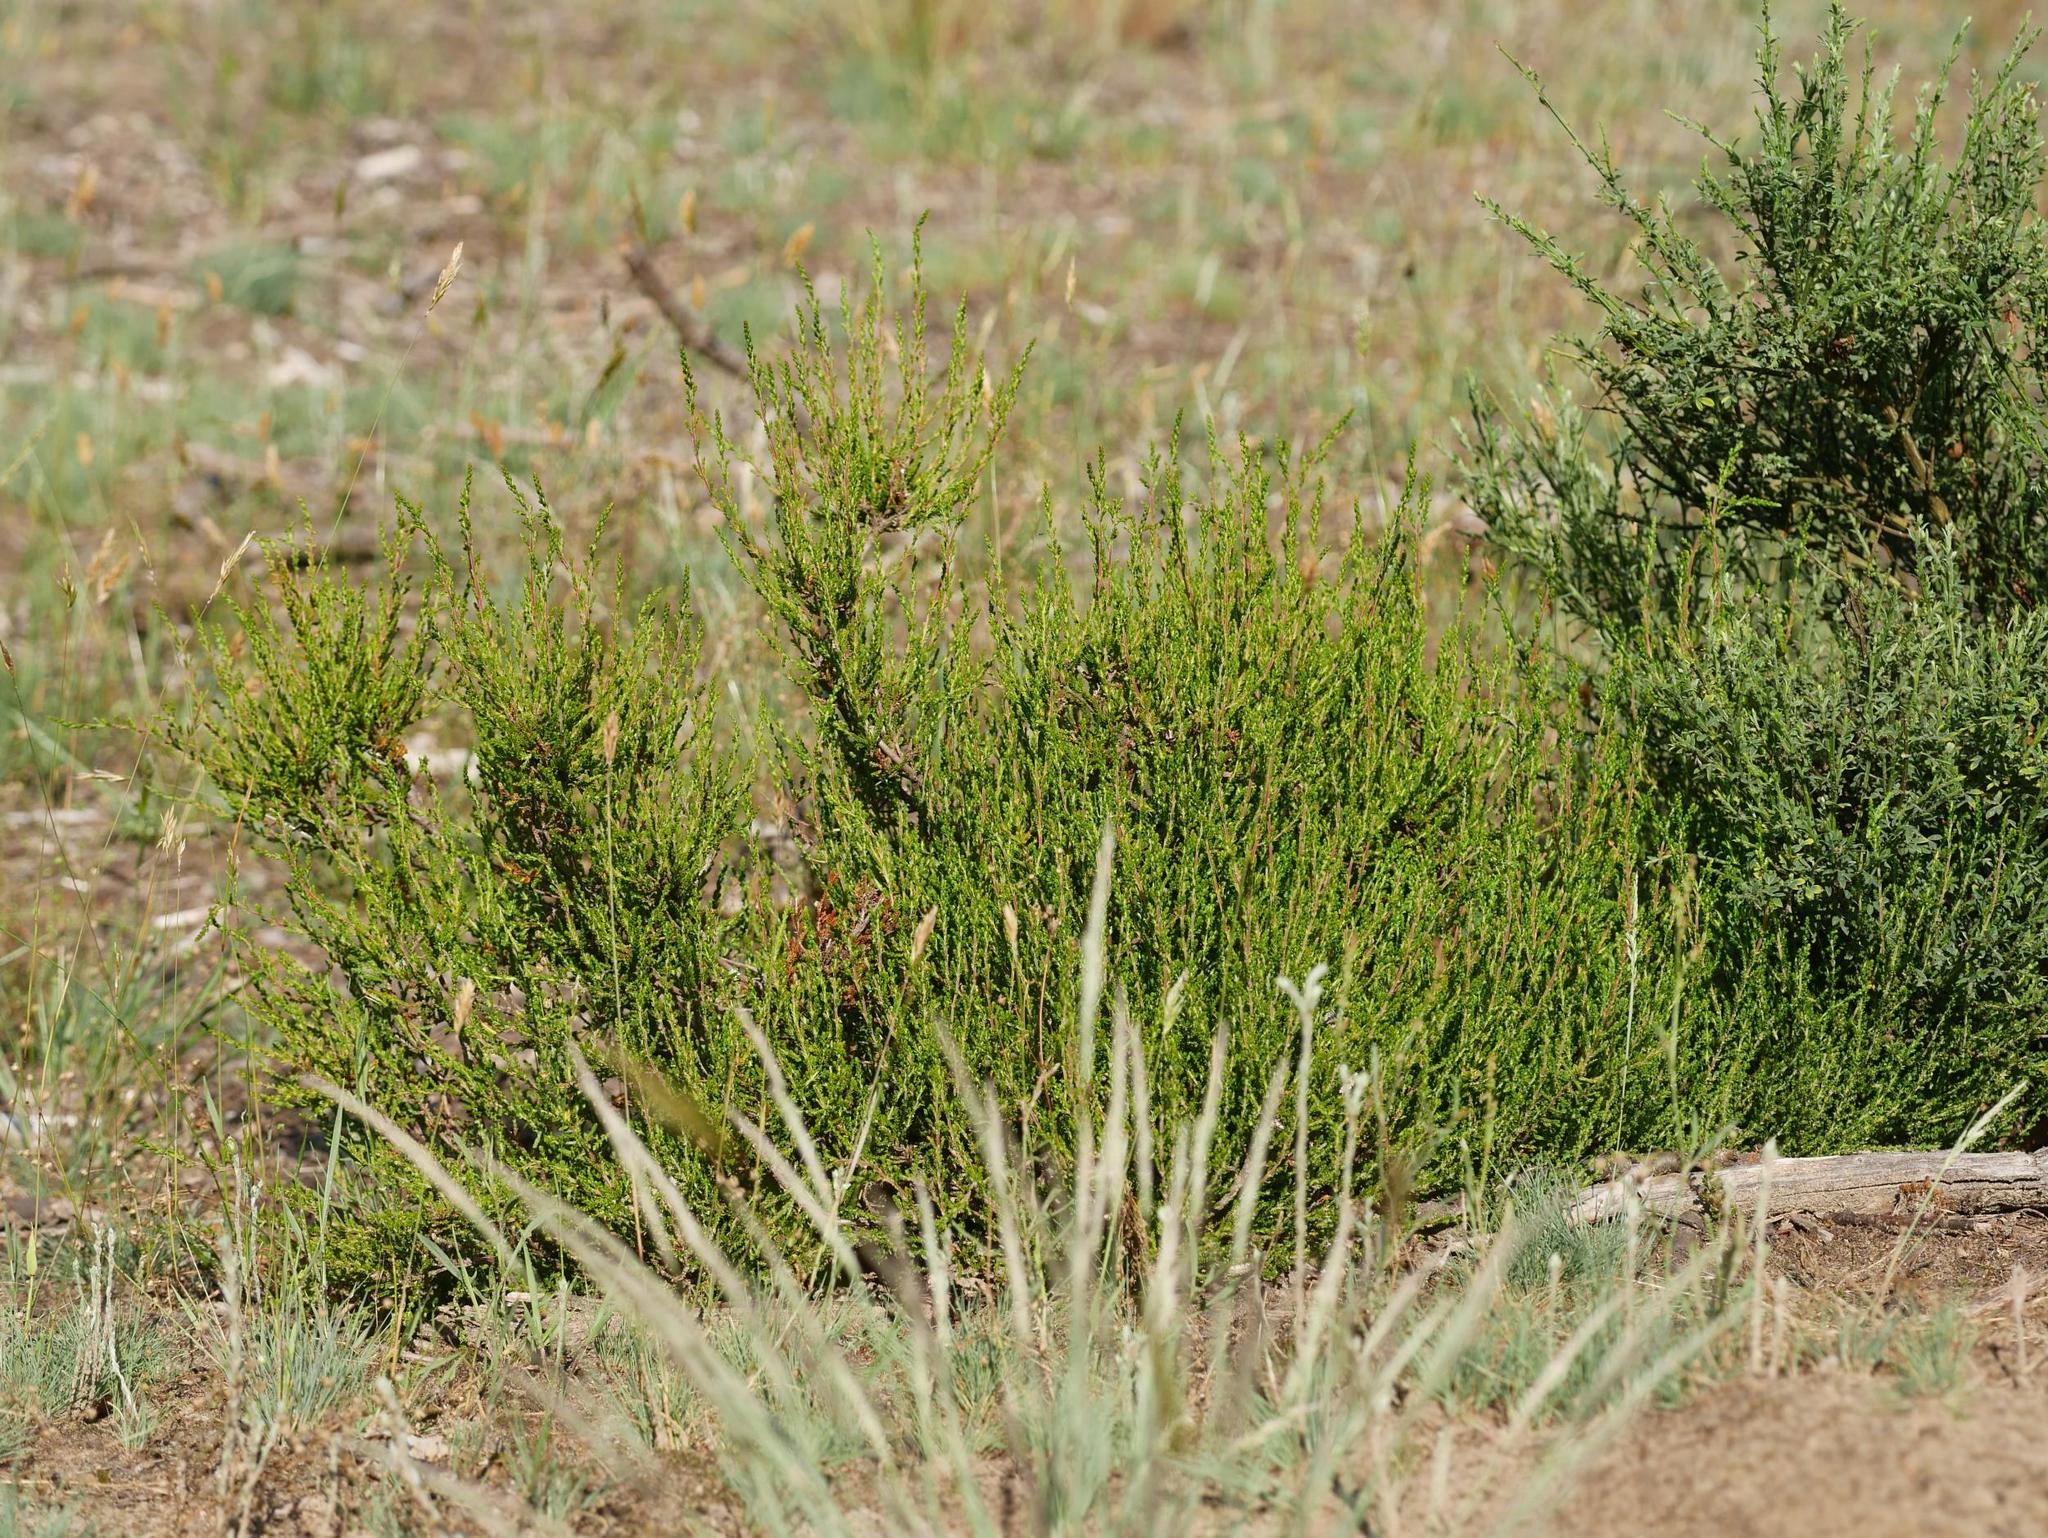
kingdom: Plantae
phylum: Tracheophyta
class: Magnoliopsida
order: Ericales
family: Ericaceae
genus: Calluna
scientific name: Calluna vulgaris
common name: Heather
